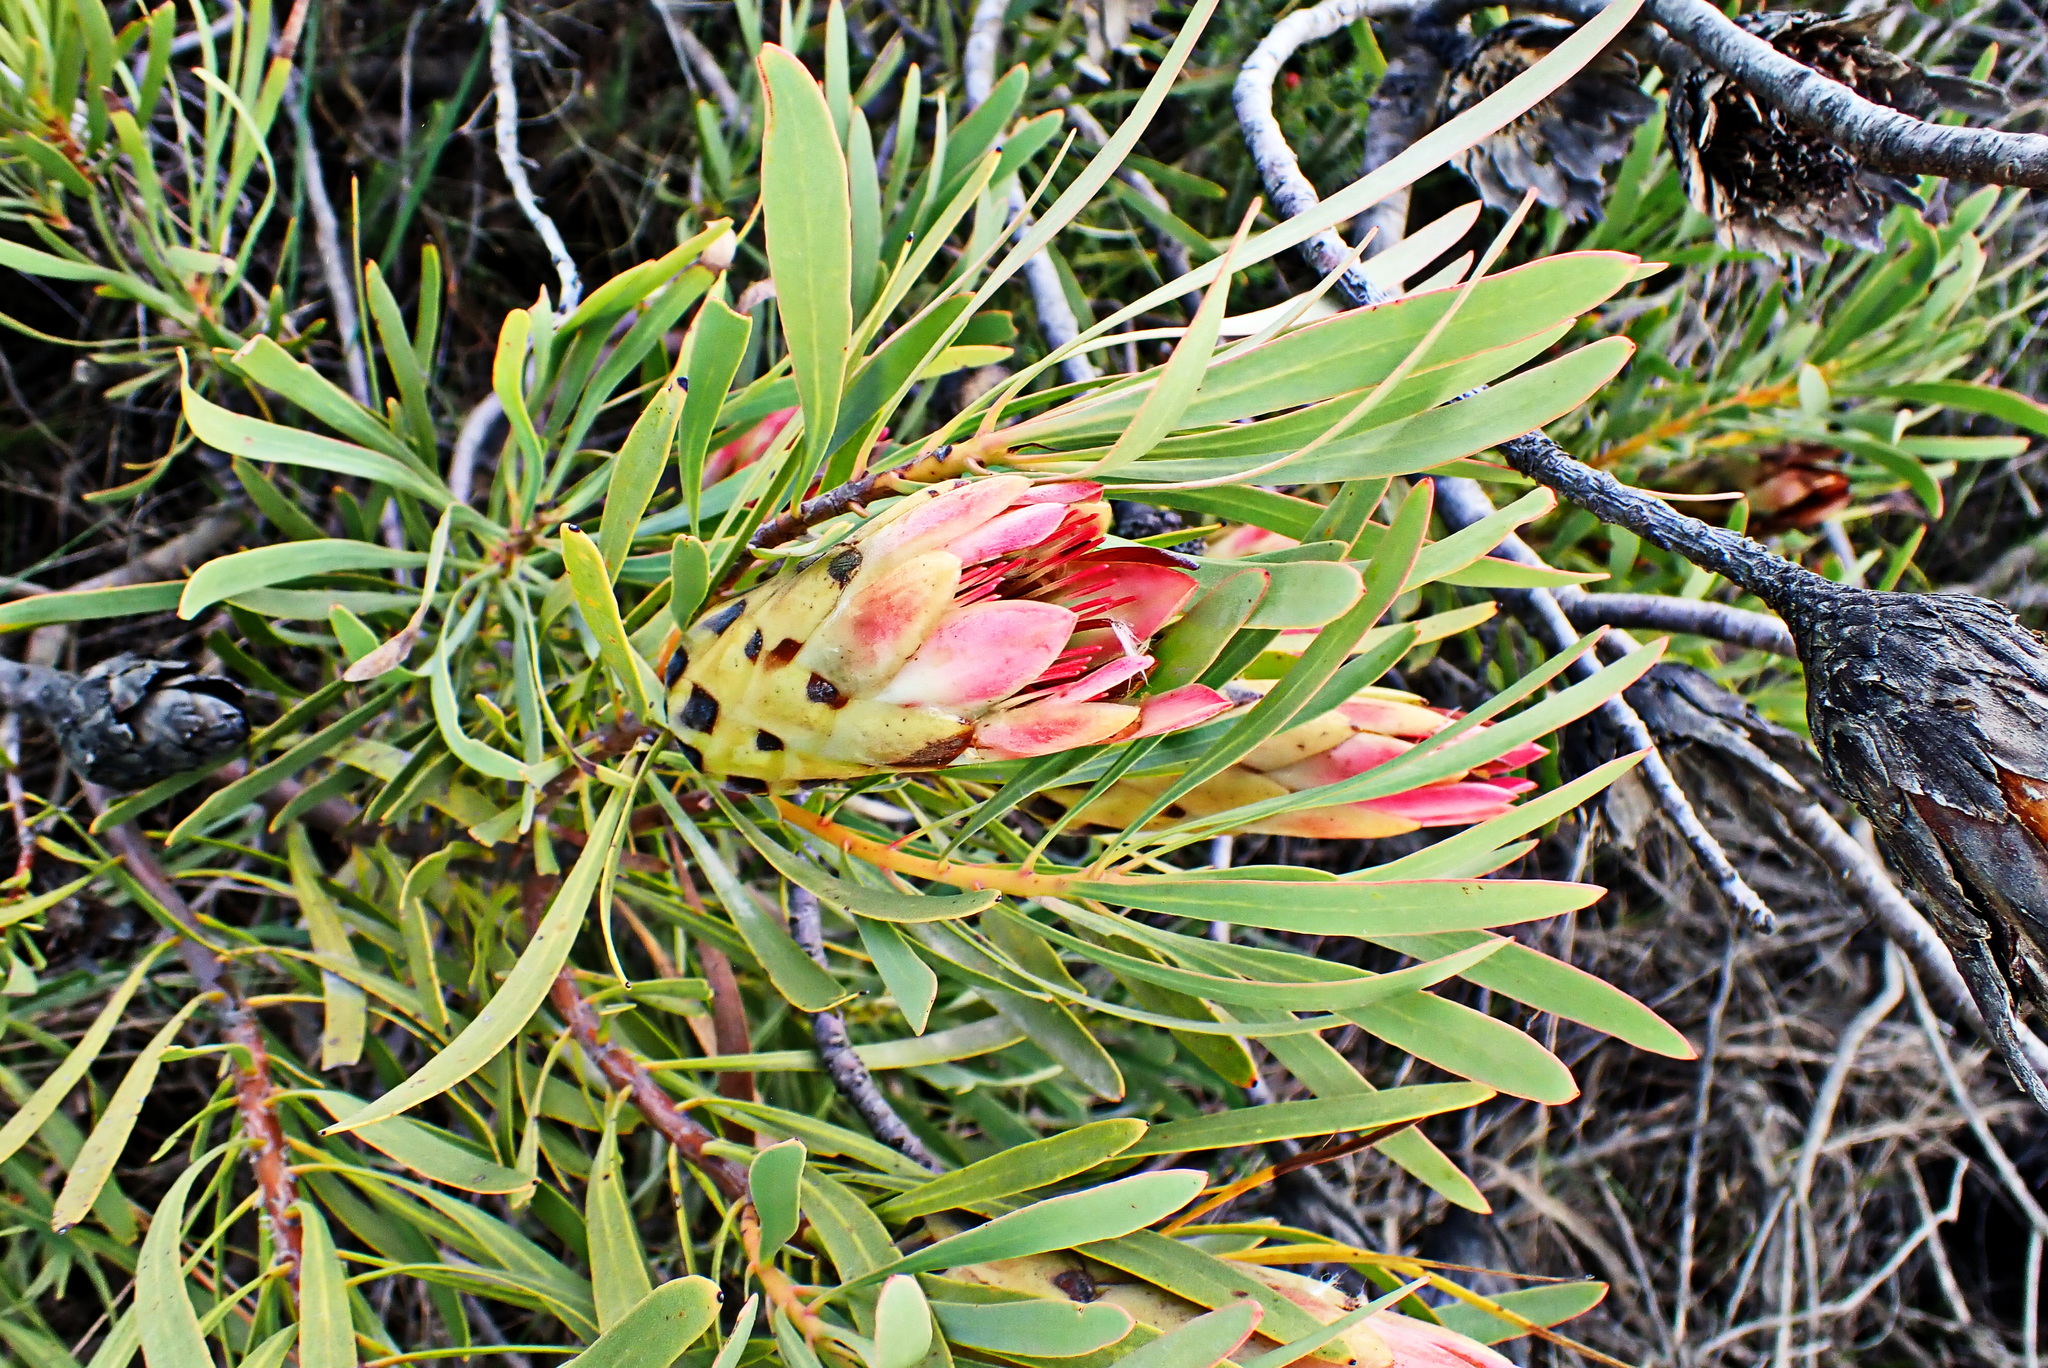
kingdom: Plantae
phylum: Tracheophyta
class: Magnoliopsida
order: Proteales
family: Proteaceae
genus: Protea
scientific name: Protea repens
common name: Sugarbush
